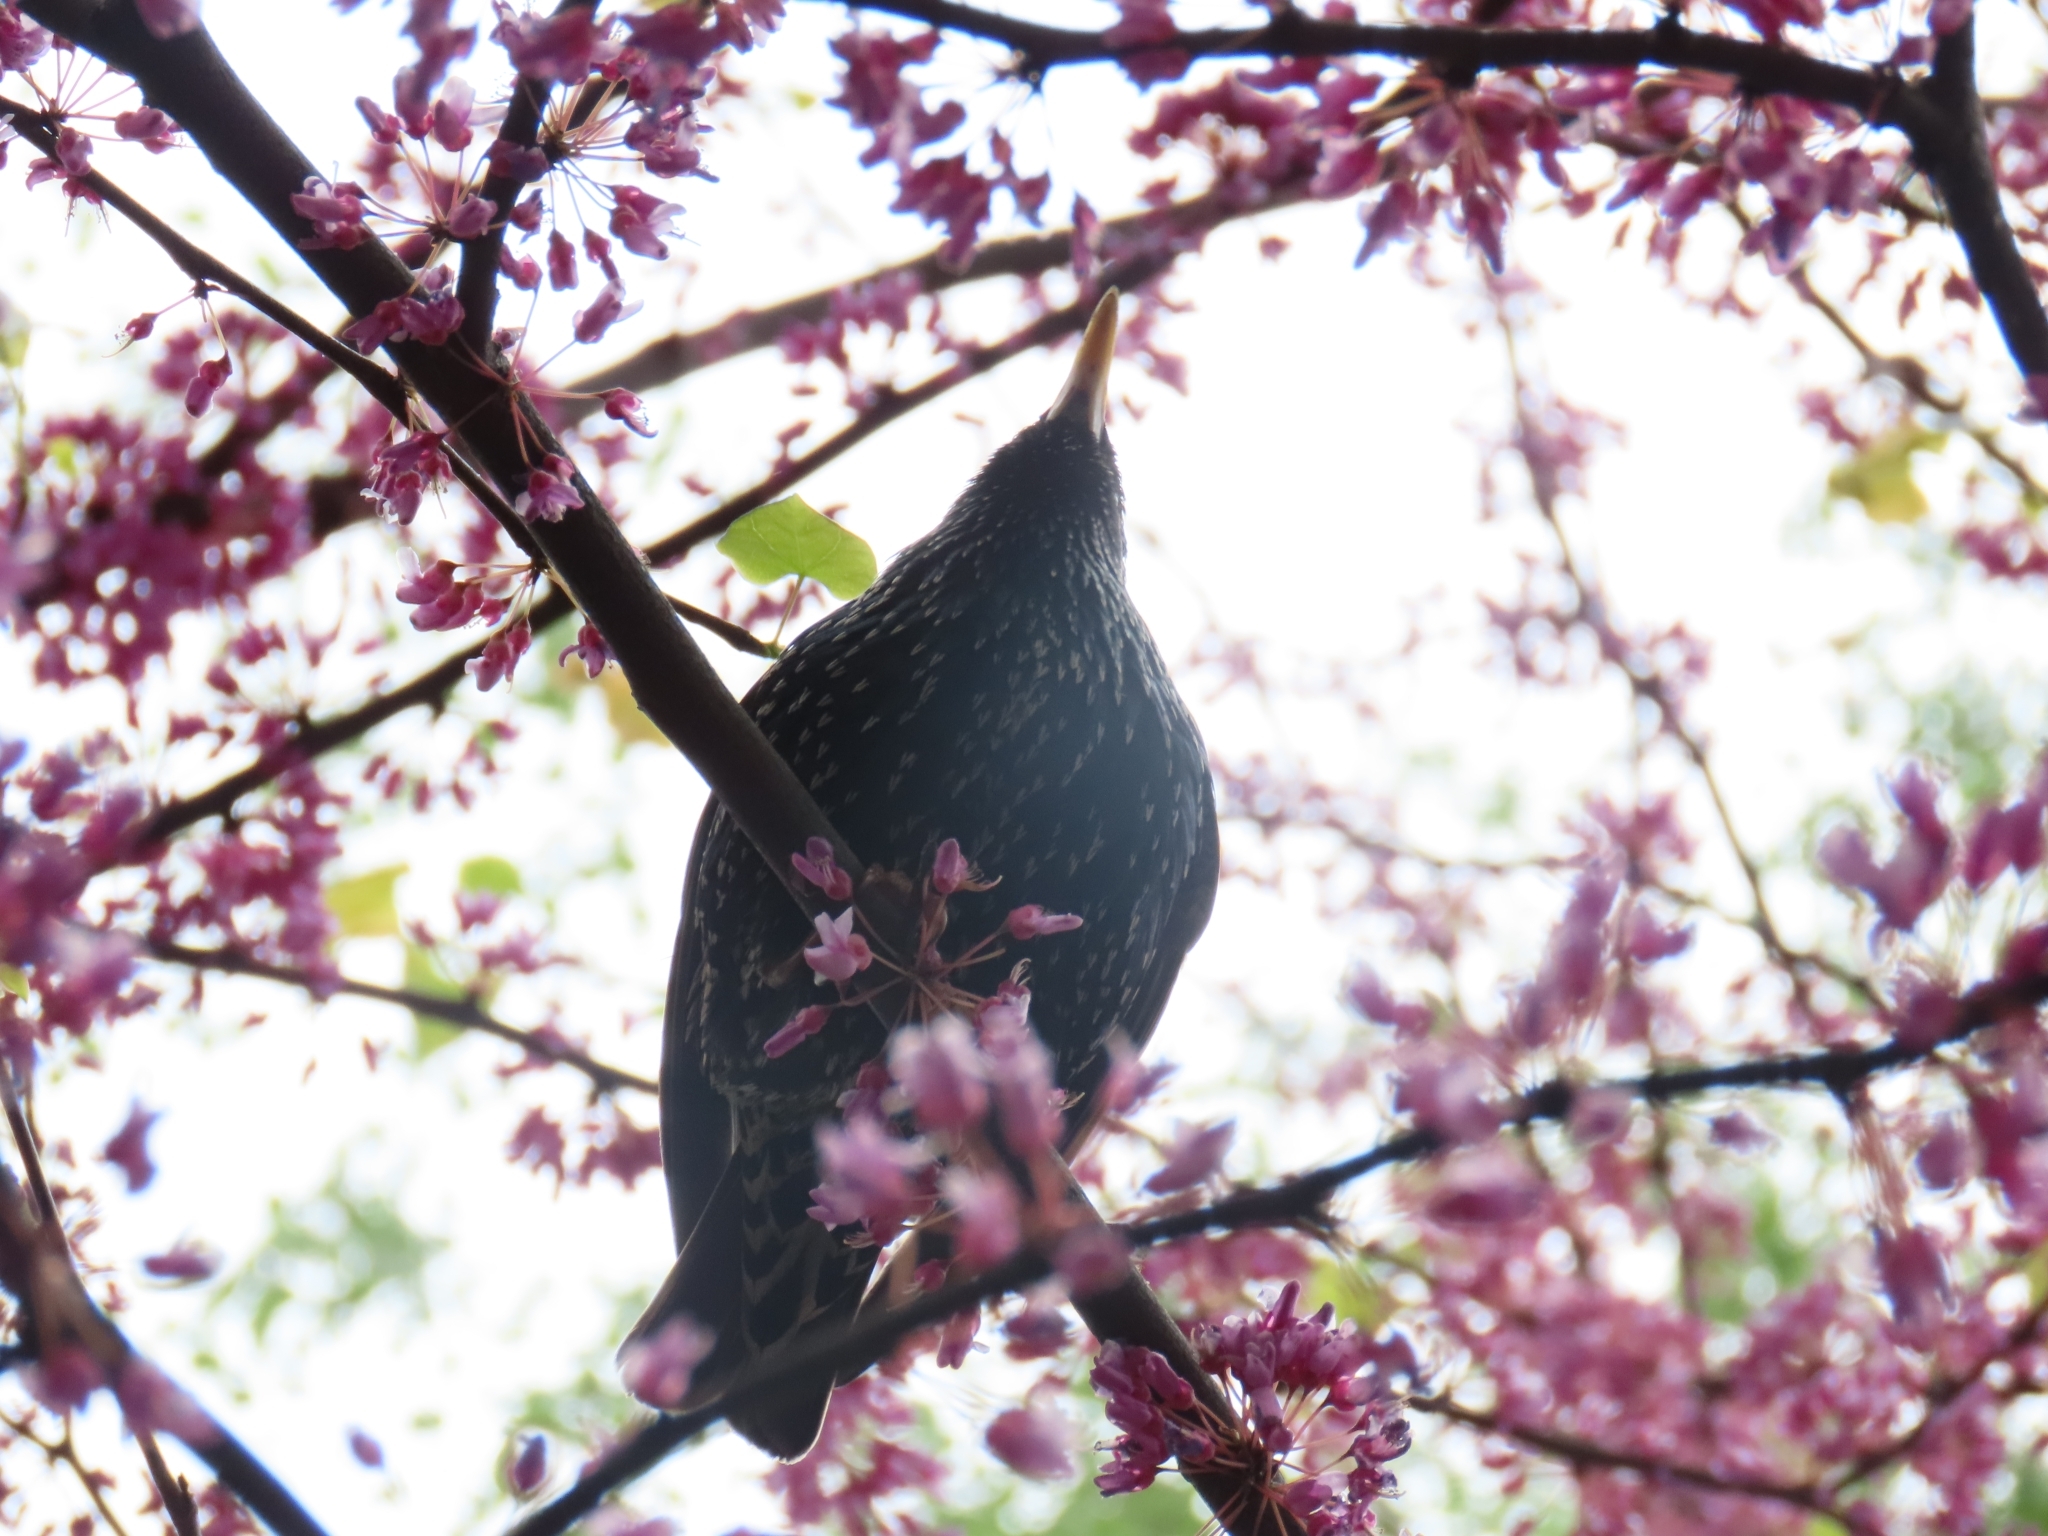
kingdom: Animalia
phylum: Chordata
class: Aves
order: Passeriformes
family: Sturnidae
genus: Sturnus
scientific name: Sturnus vulgaris
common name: Common starling
